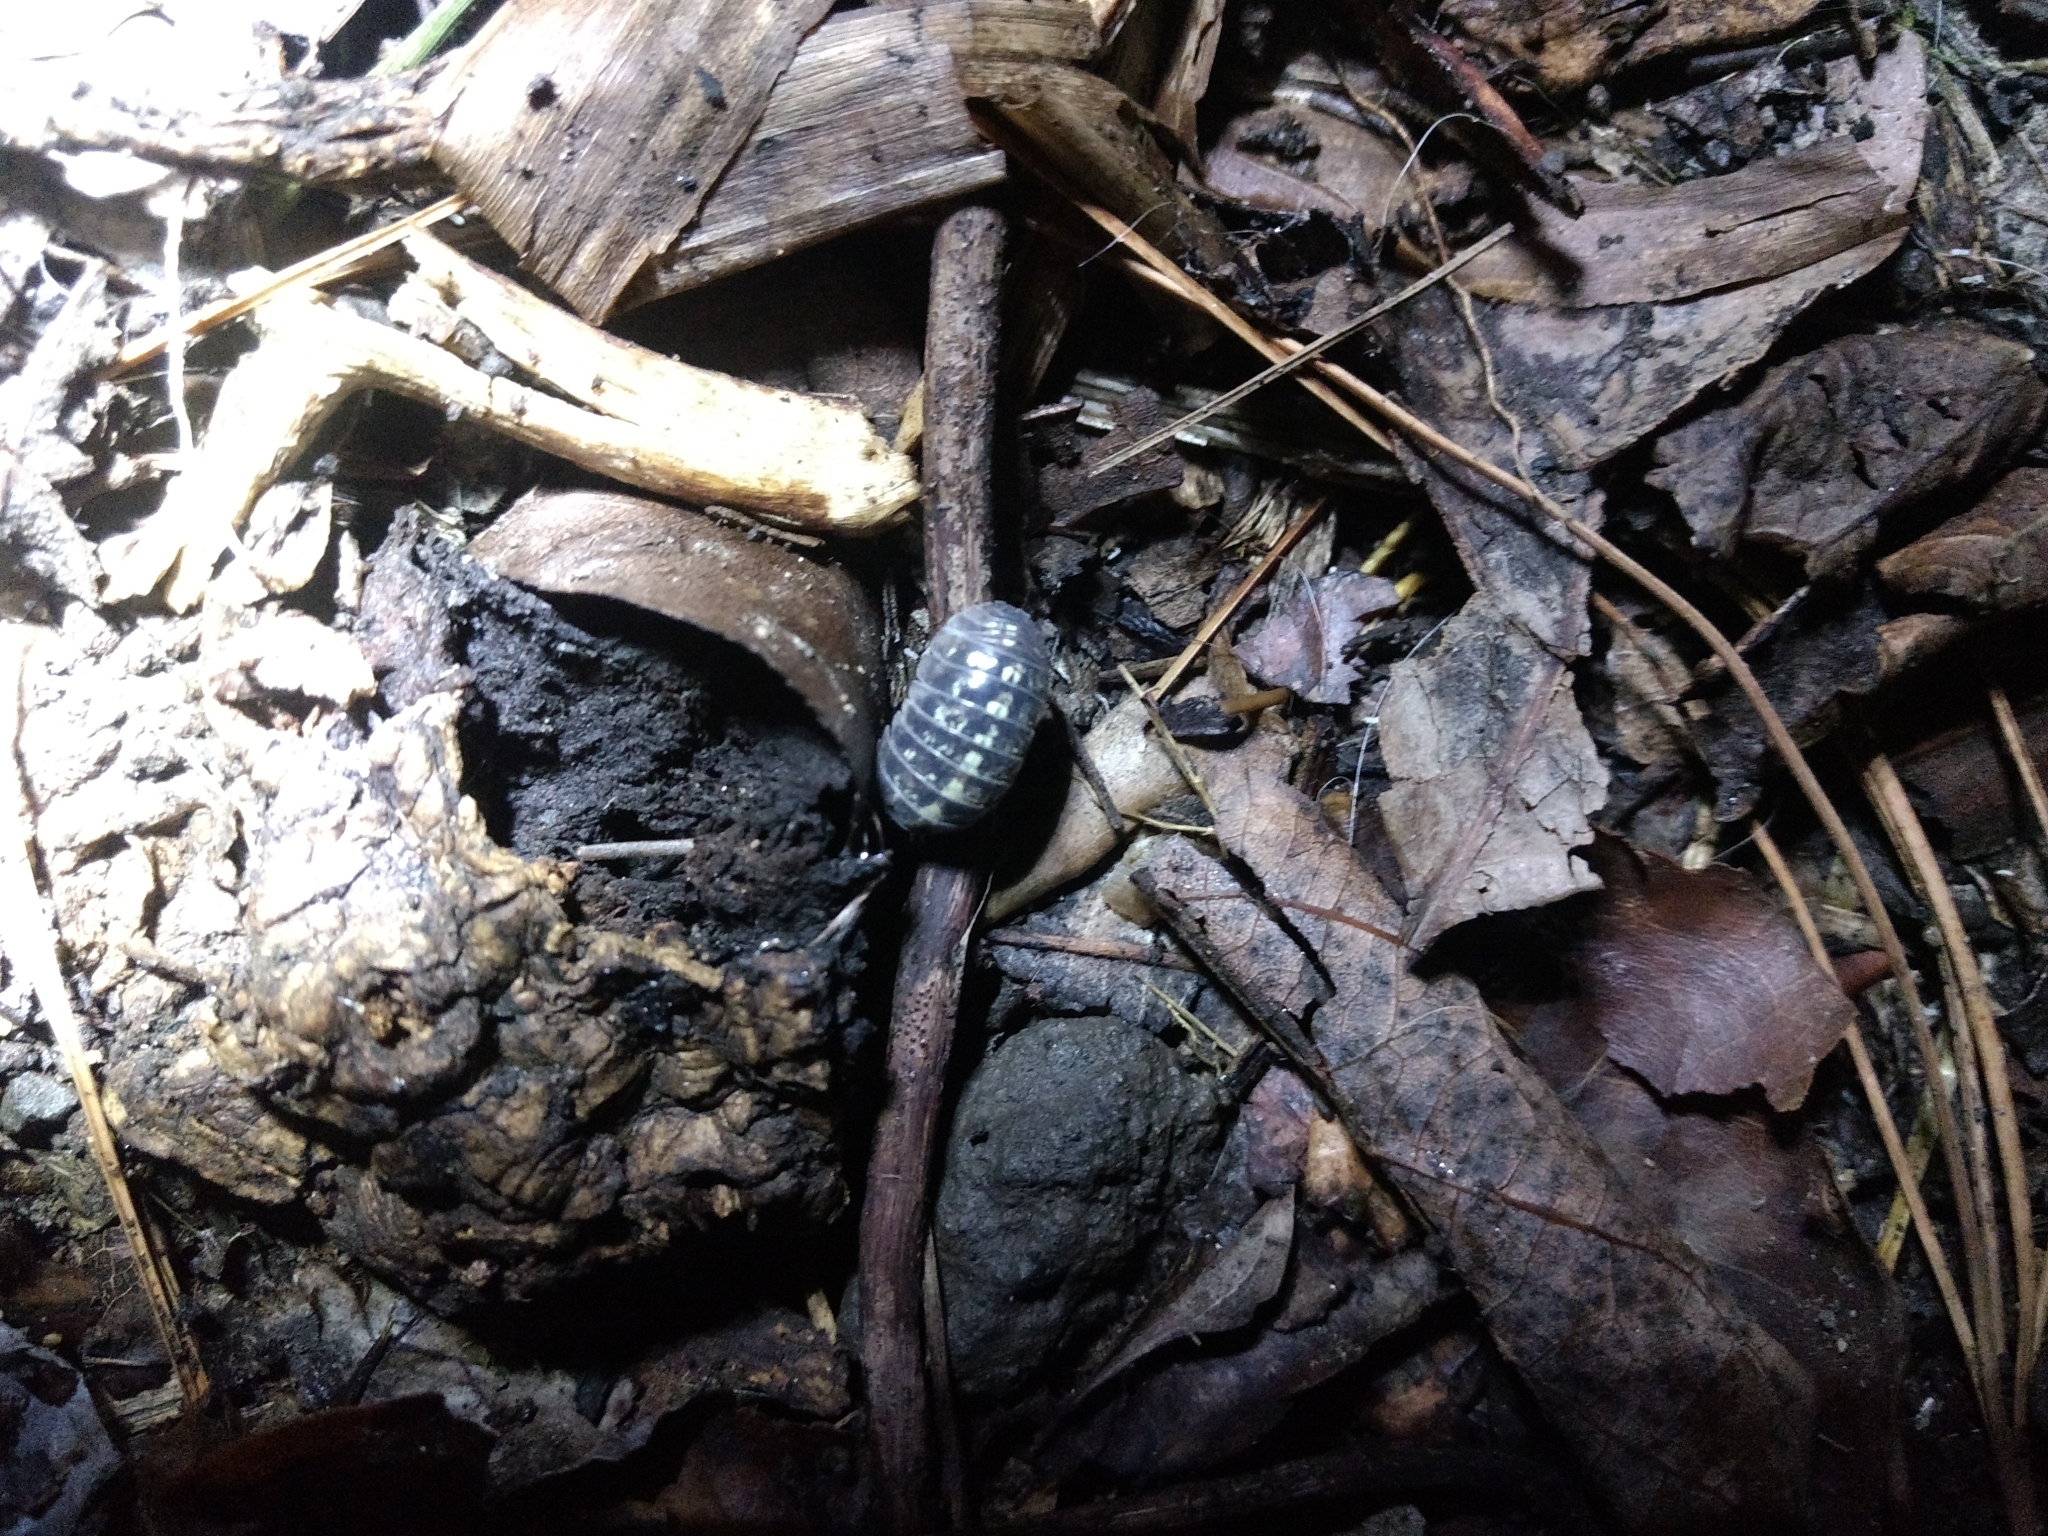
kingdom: Animalia
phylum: Arthropoda
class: Malacostraca
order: Isopoda
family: Armadillidiidae
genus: Armadillidium
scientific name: Armadillidium vulgare
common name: Common pill woodlouse
